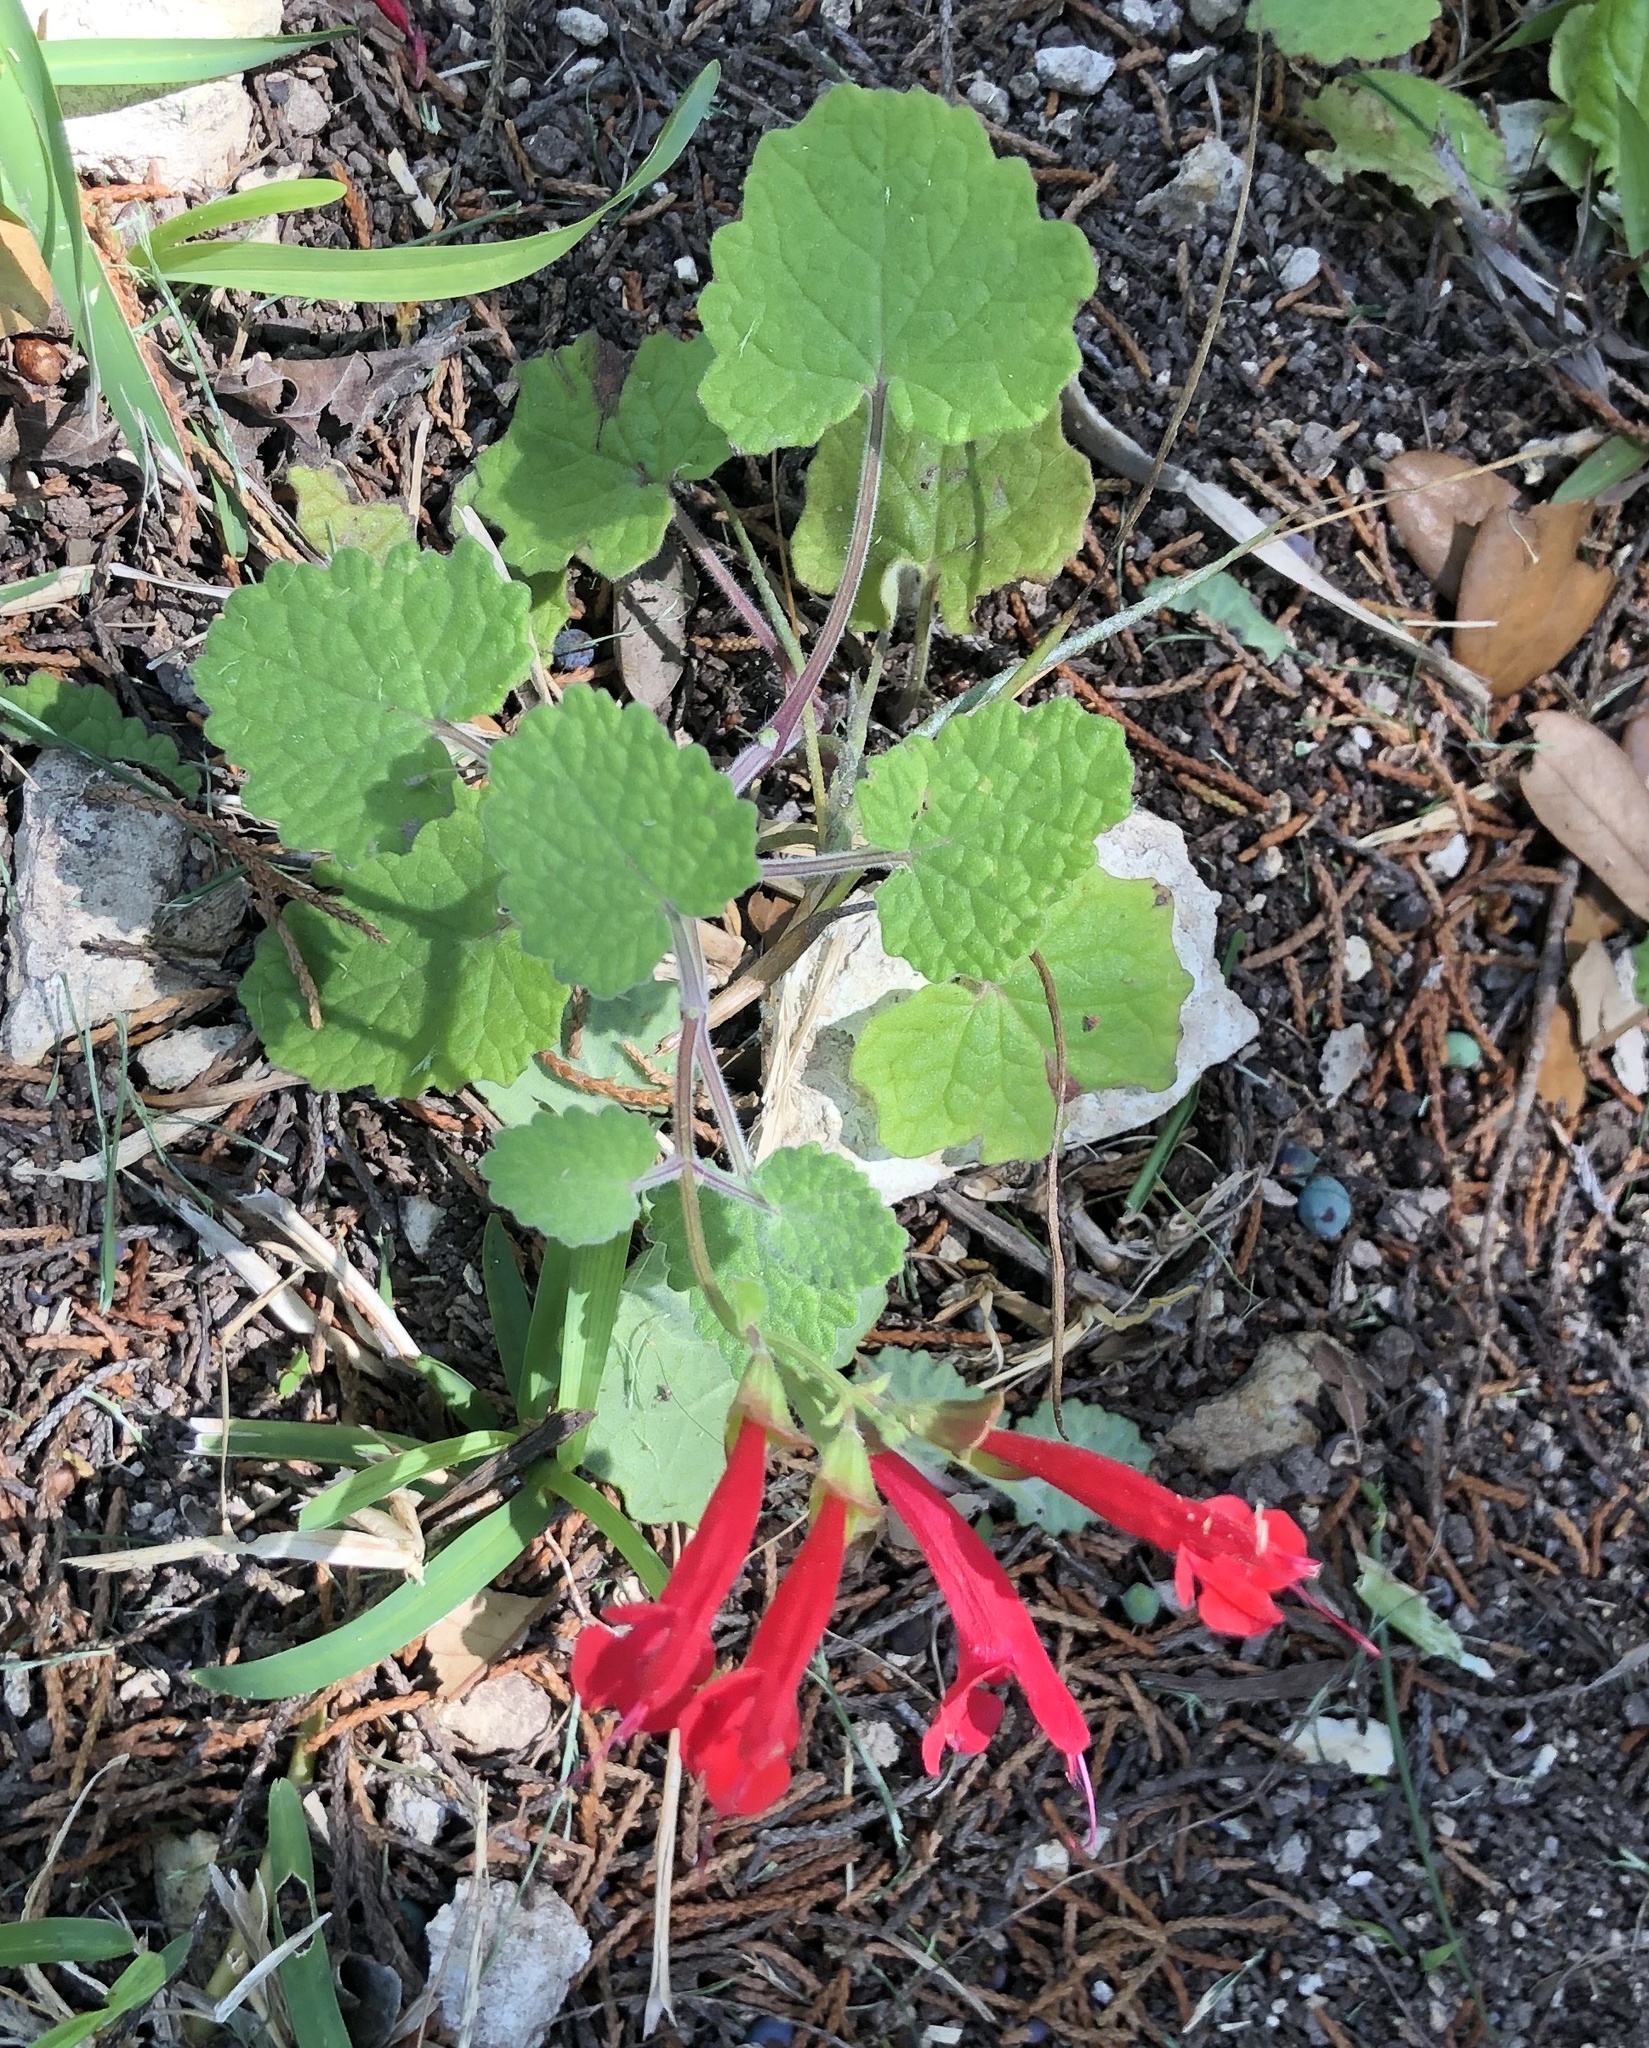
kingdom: Plantae
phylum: Tracheophyta
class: Magnoliopsida
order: Lamiales
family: Lamiaceae
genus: Salvia
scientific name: Salvia roemeriana
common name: Cedar sage
